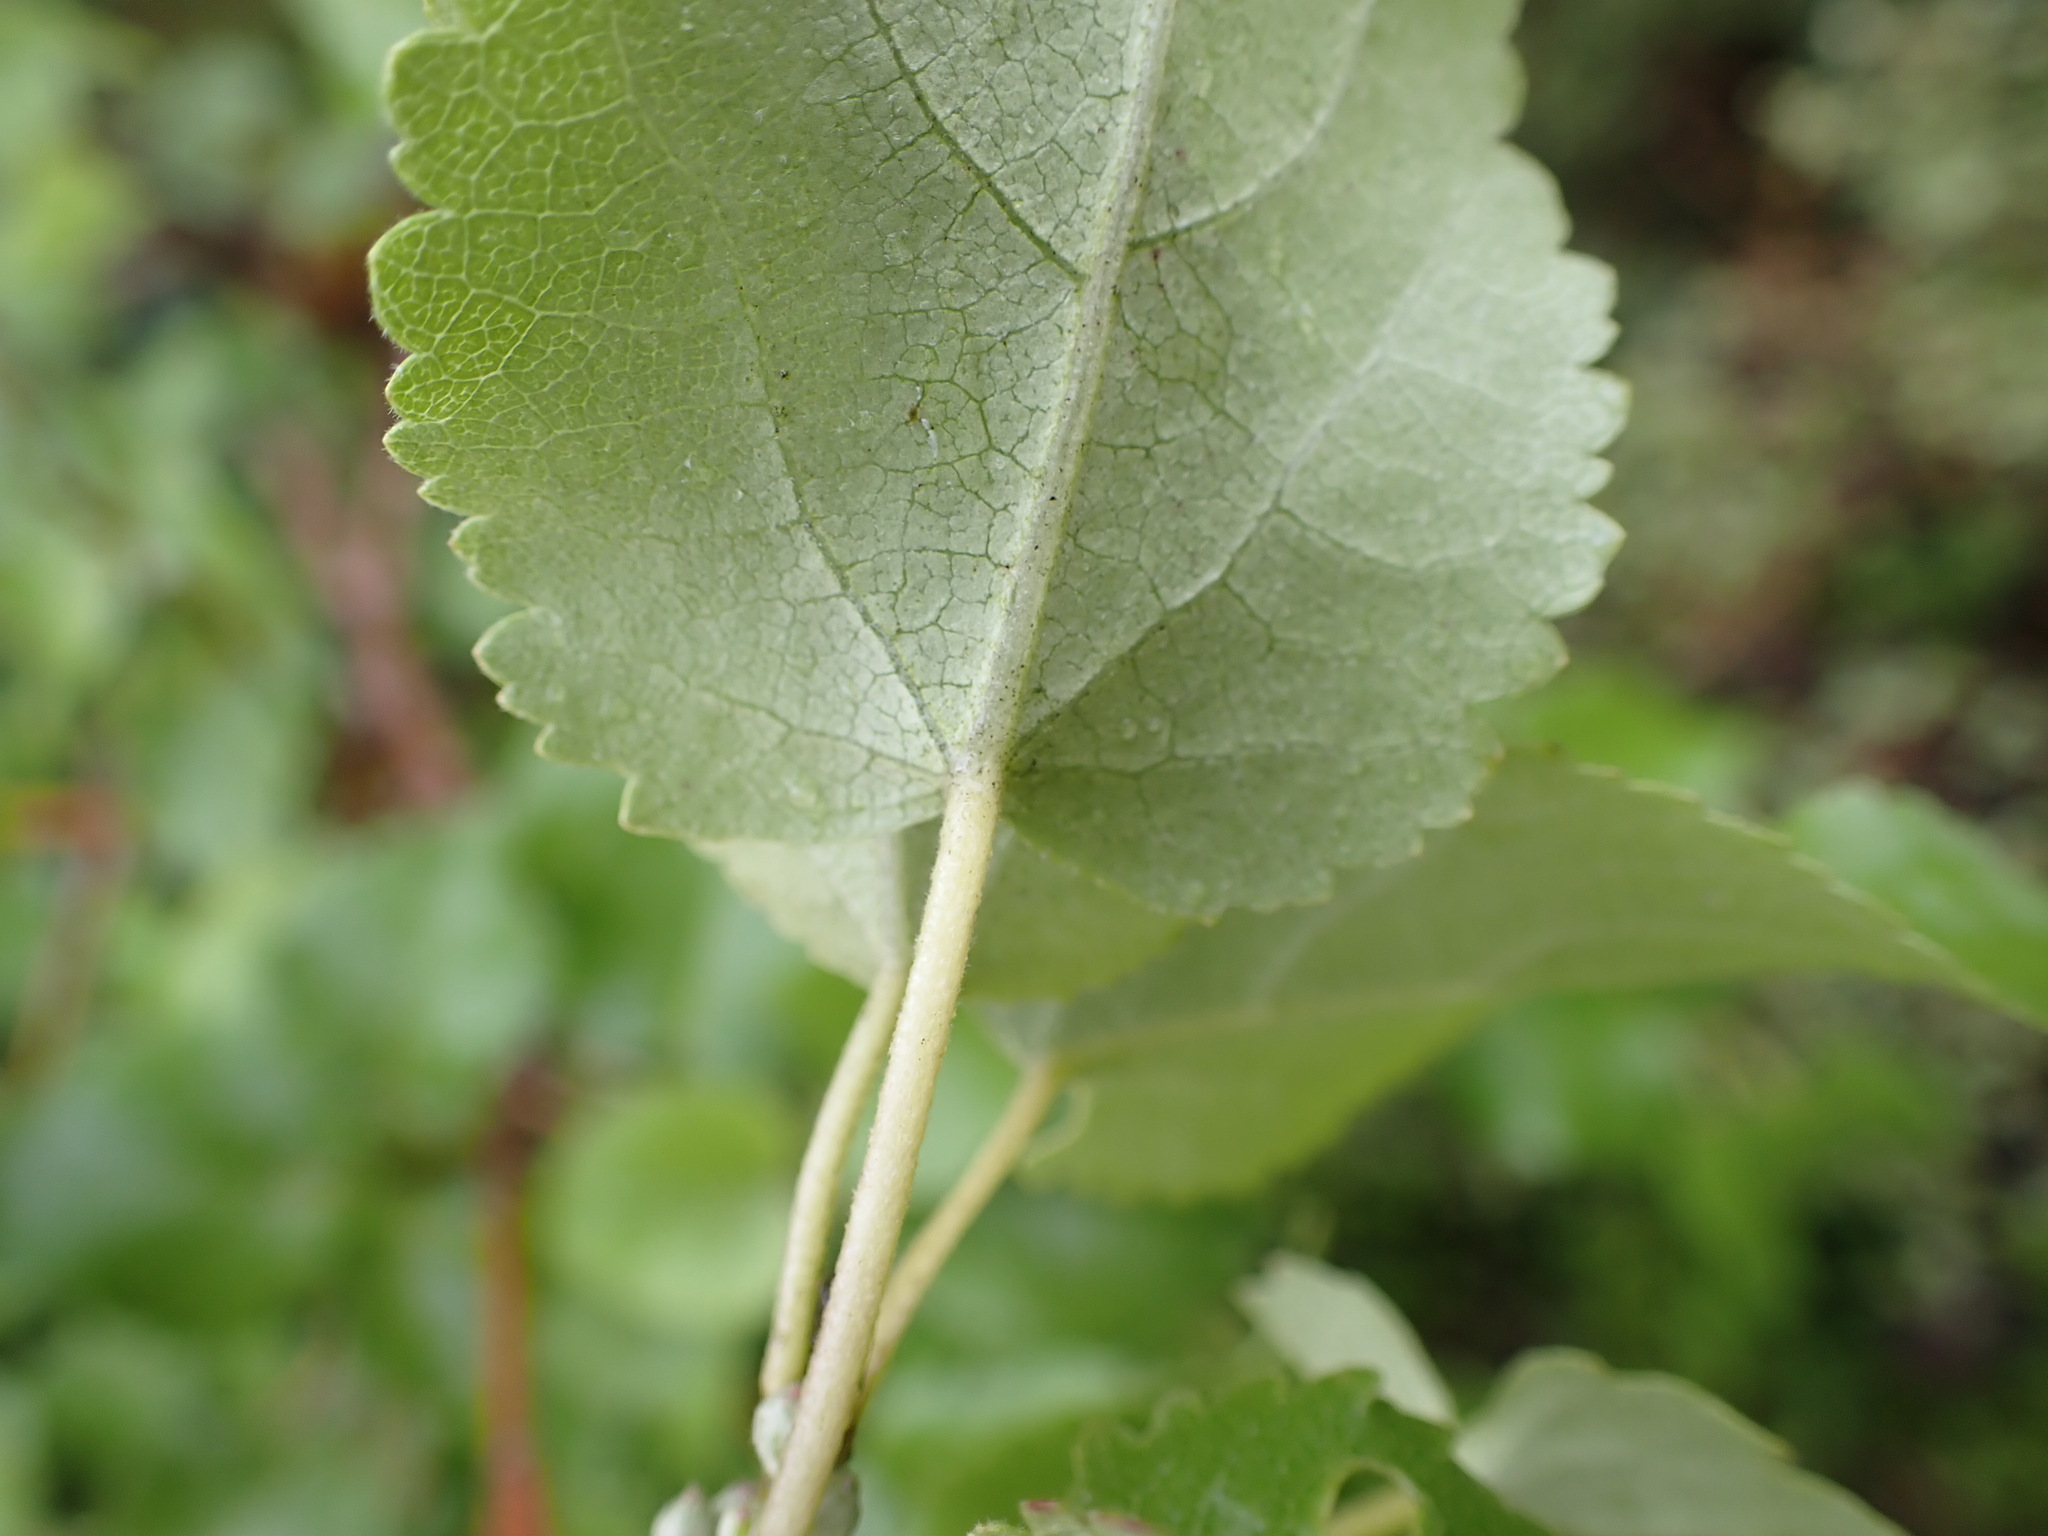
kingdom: Plantae
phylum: Tracheophyta
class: Magnoliopsida
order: Malvales
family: Malvaceae
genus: Hoheria
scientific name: Hoheria glabrata
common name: Mountain-ribbon
